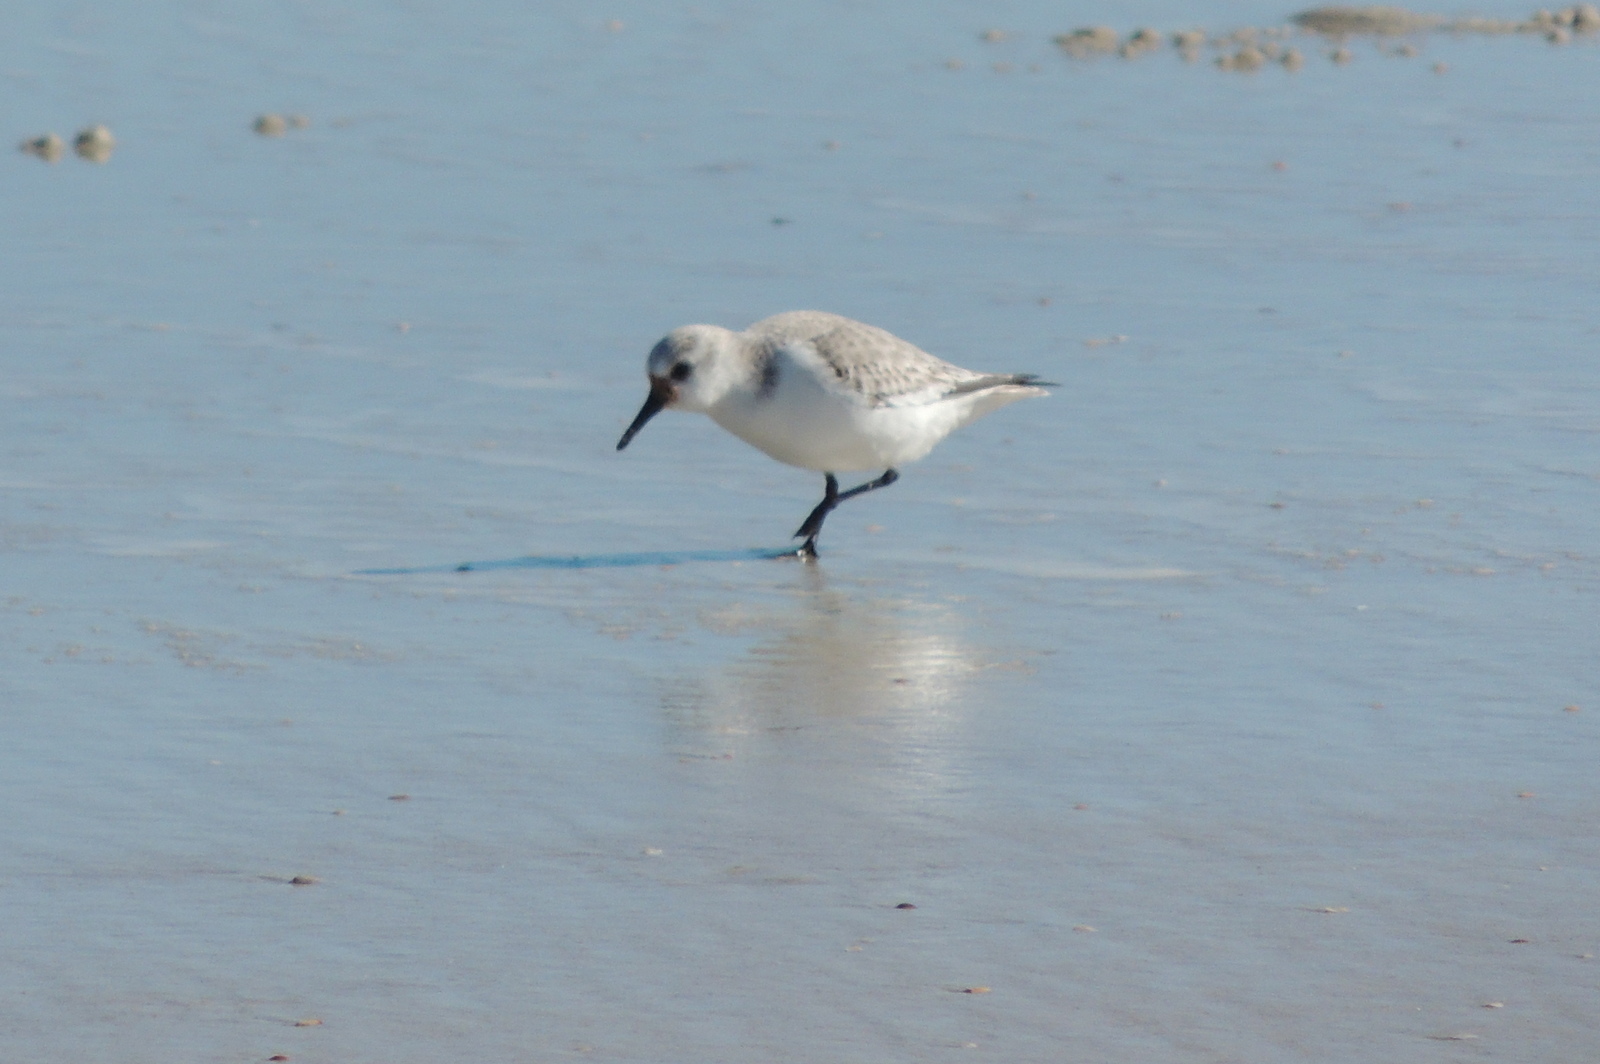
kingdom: Animalia
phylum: Chordata
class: Aves
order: Charadriiformes
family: Scolopacidae
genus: Calidris
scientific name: Calidris alba
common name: Sanderling
